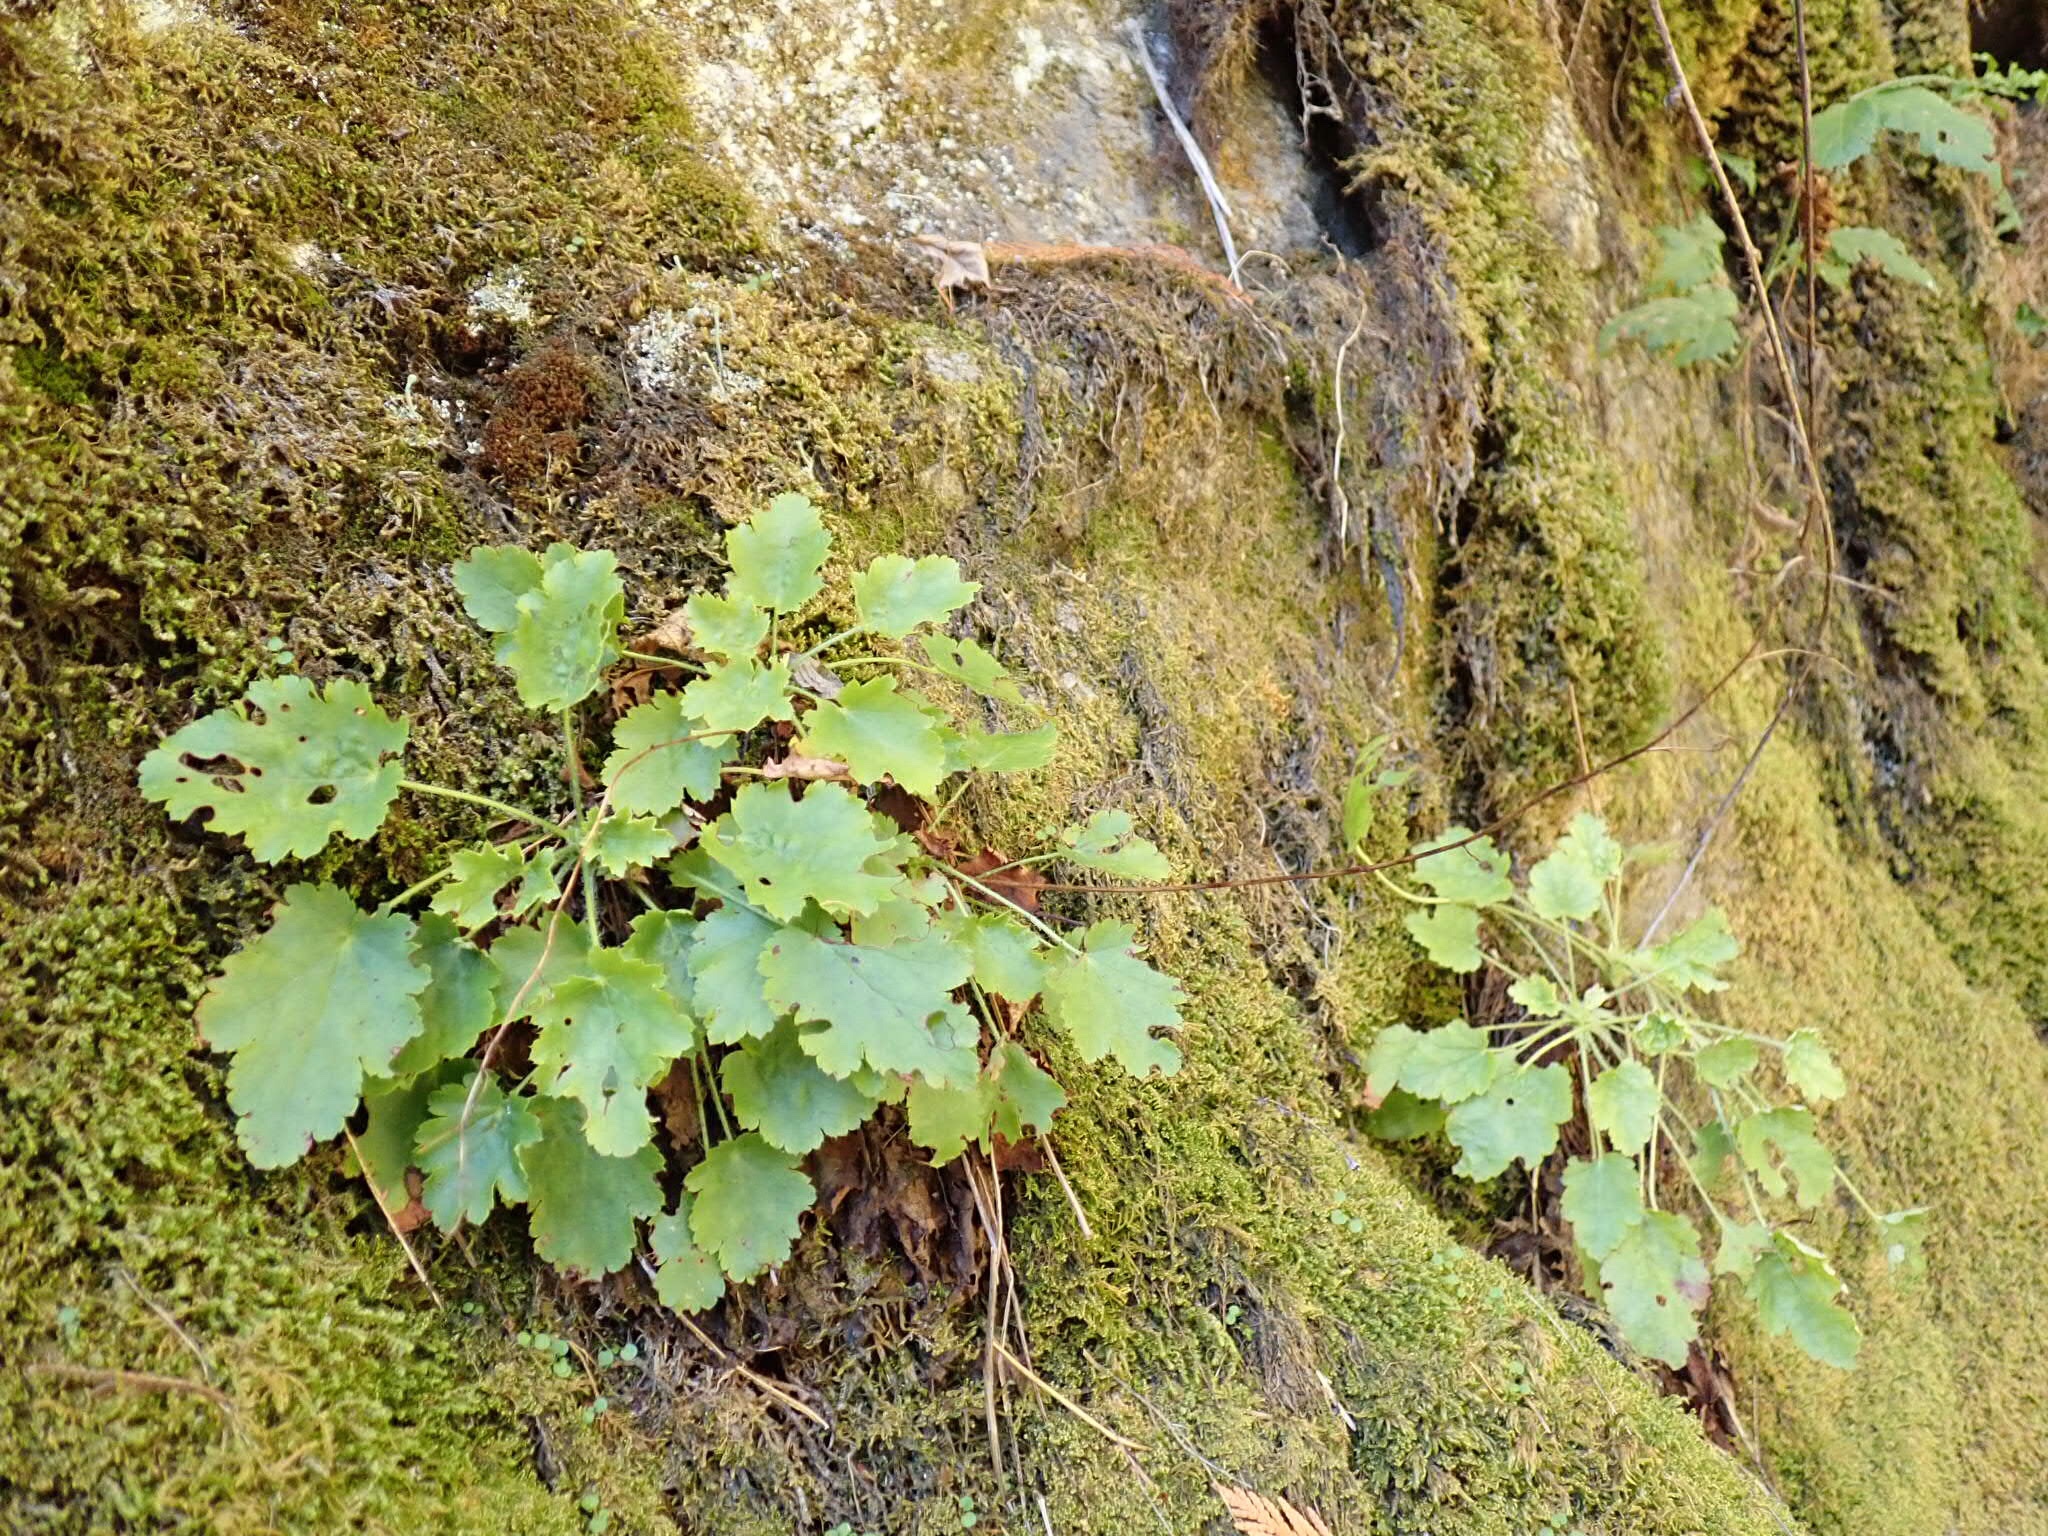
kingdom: Plantae
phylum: Tracheophyta
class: Magnoliopsida
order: Saxifragales
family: Saxifragaceae
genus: Heuchera
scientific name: Heuchera micrantha
